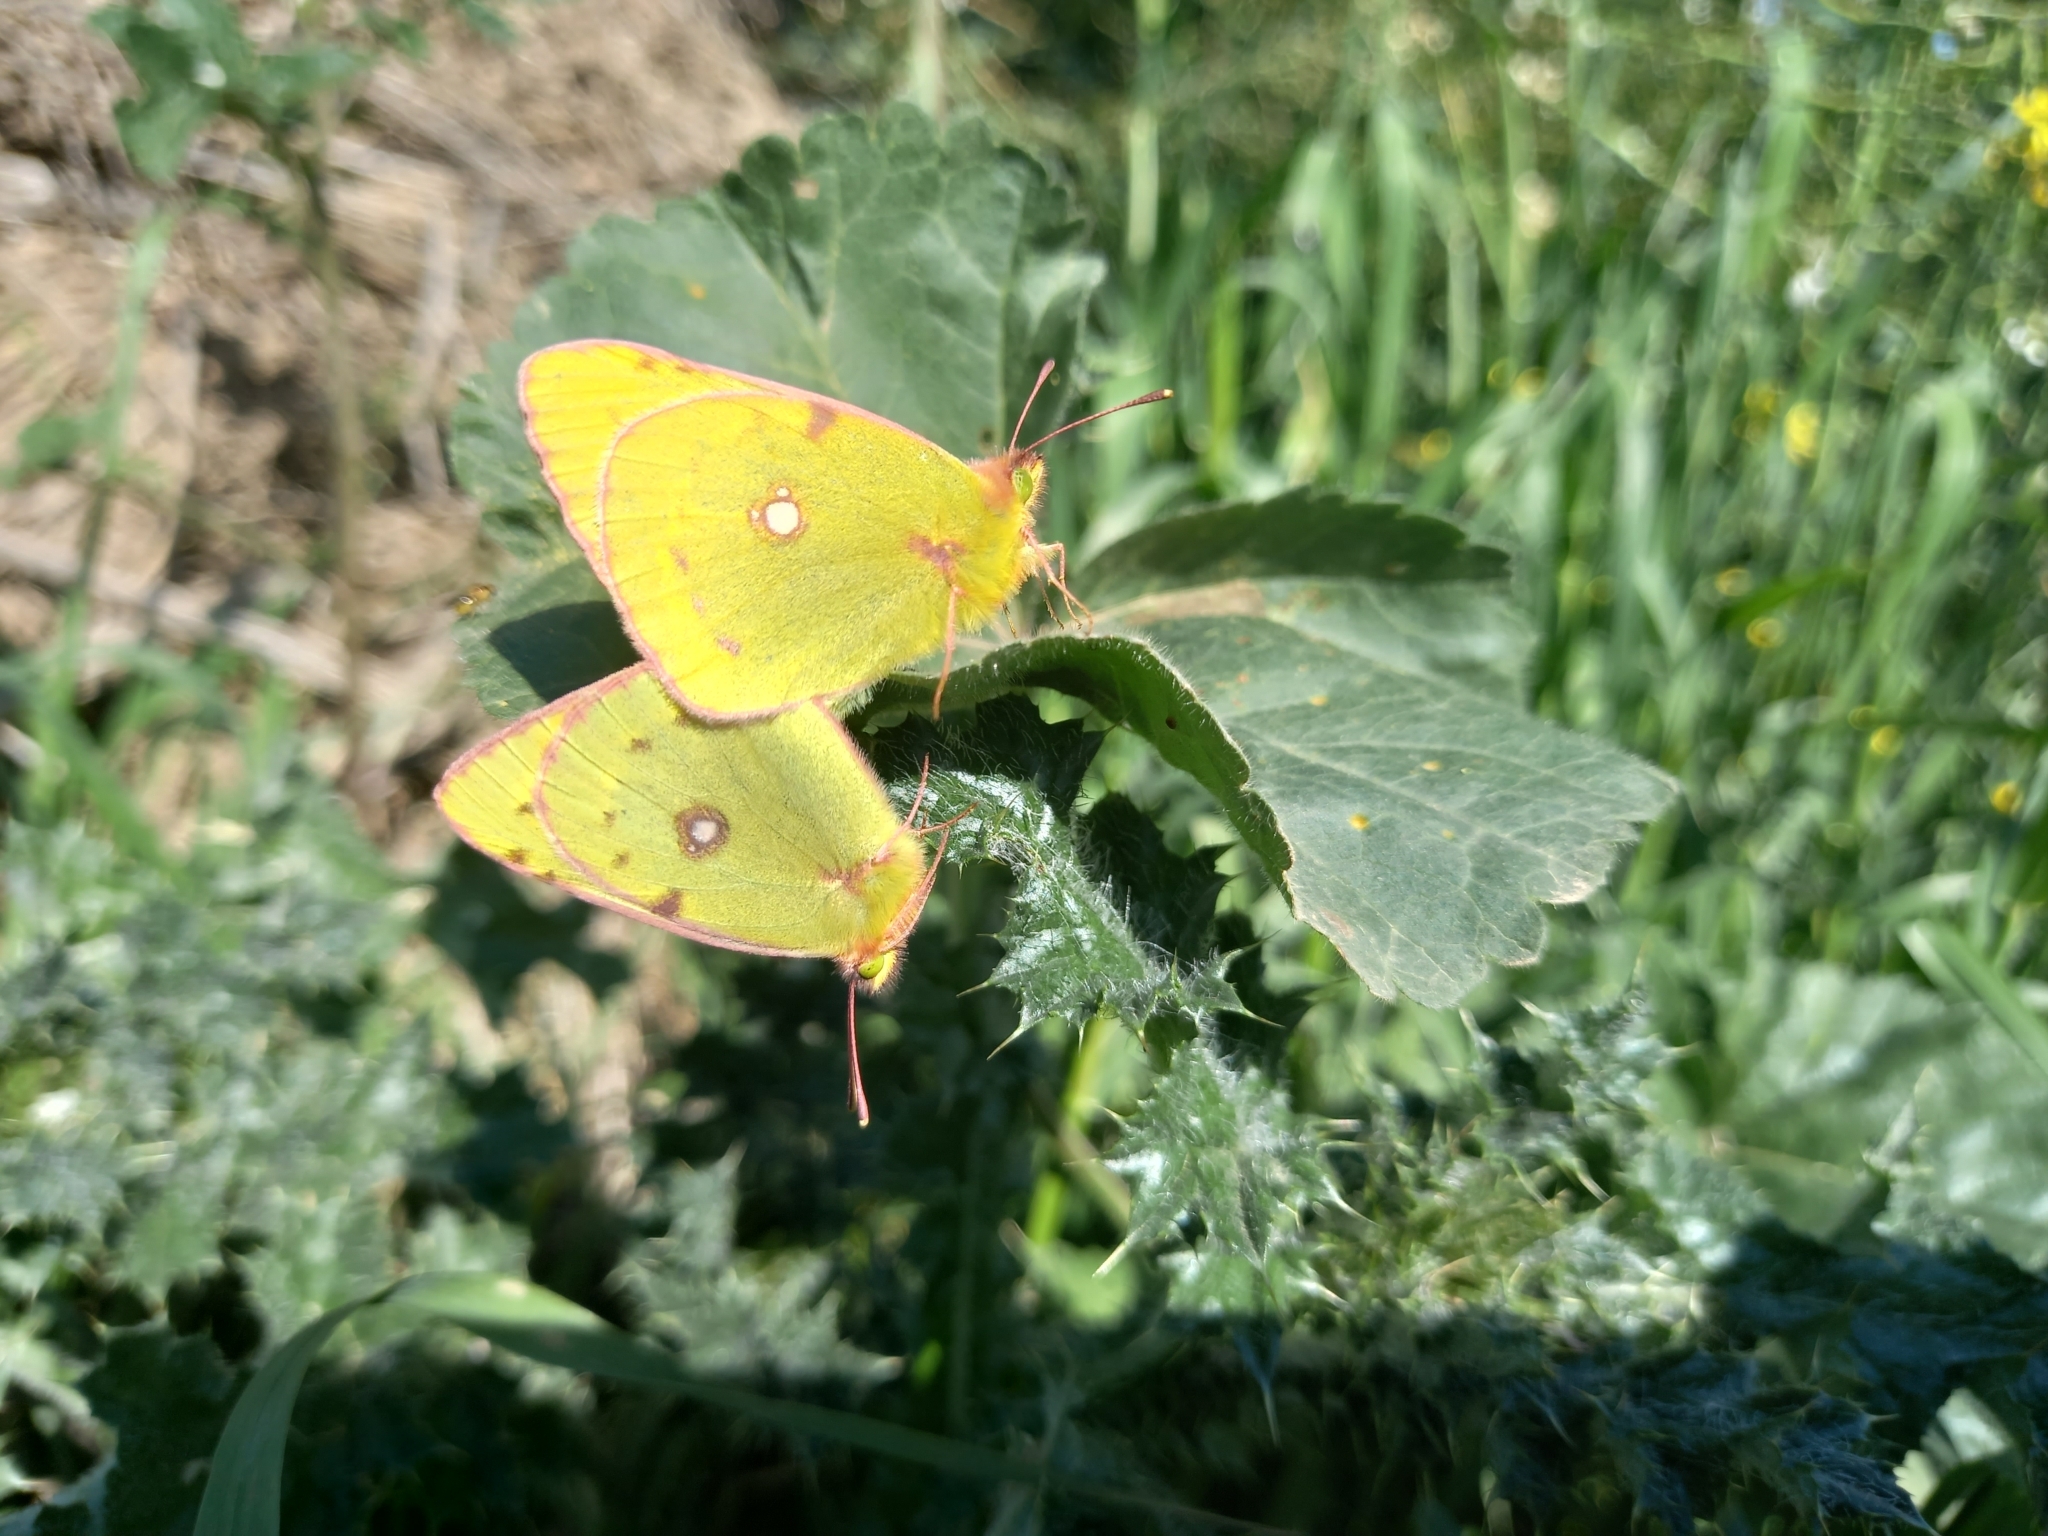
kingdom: Animalia
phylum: Arthropoda
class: Insecta
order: Lepidoptera
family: Pieridae
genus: Colias
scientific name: Colias croceus
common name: Clouded yellow
